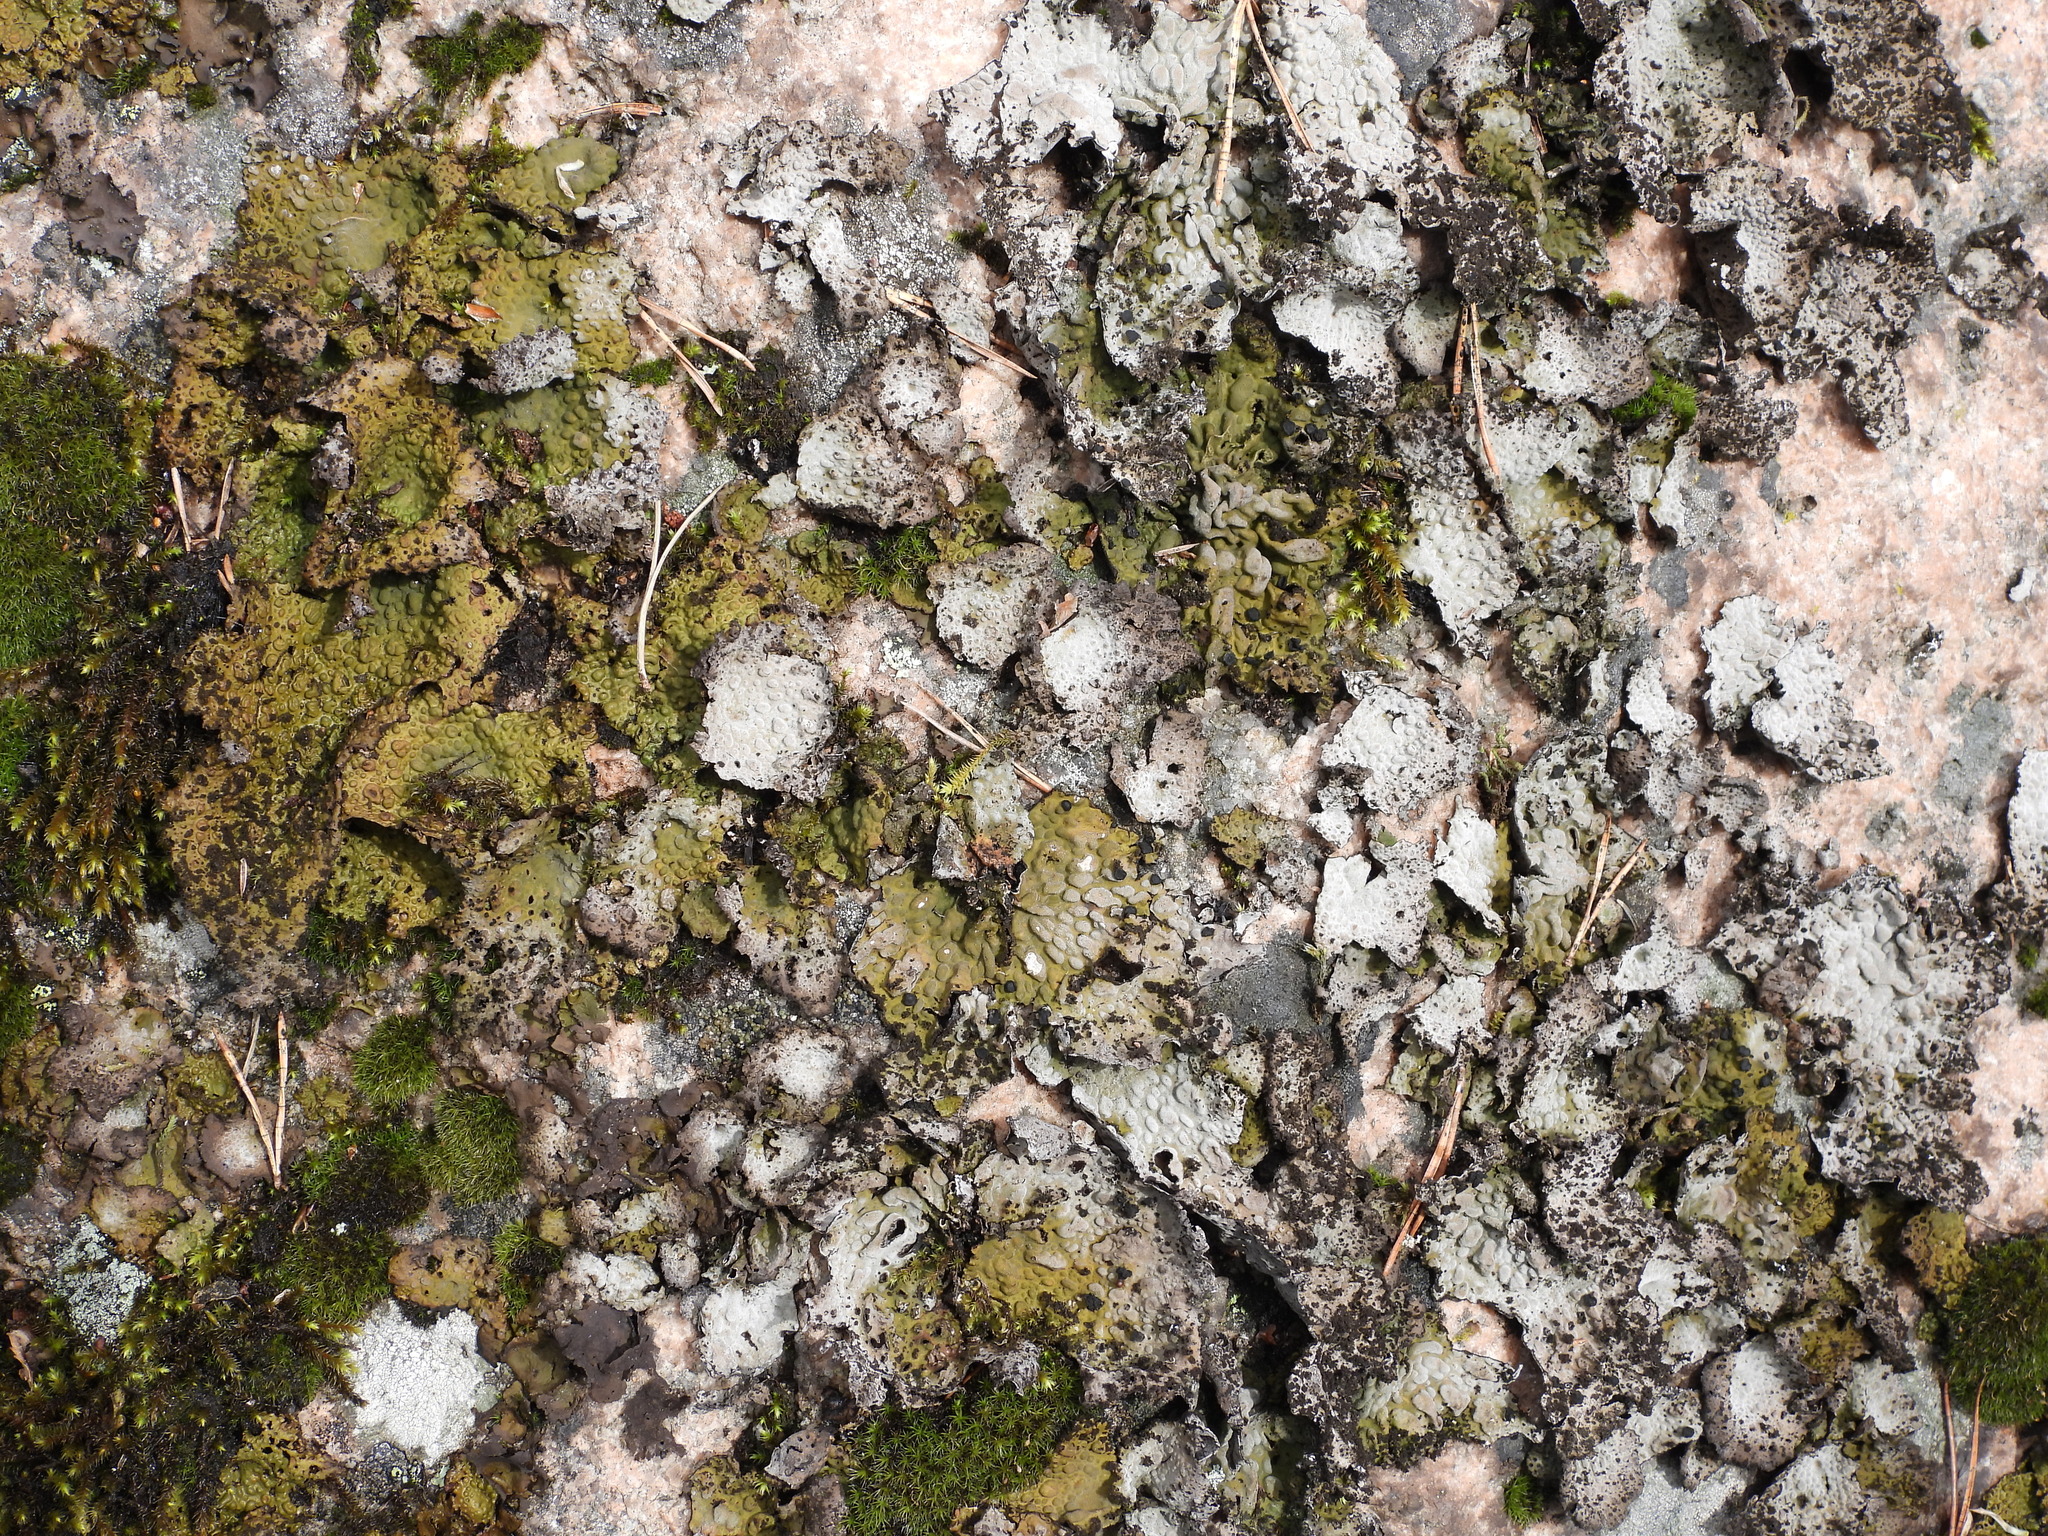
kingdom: Fungi
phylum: Ascomycota
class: Lecanoromycetes
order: Umbilicariales
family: Umbilicariaceae
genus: Lasallia
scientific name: Lasallia pustulata
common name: Blistered toadskin lichen
